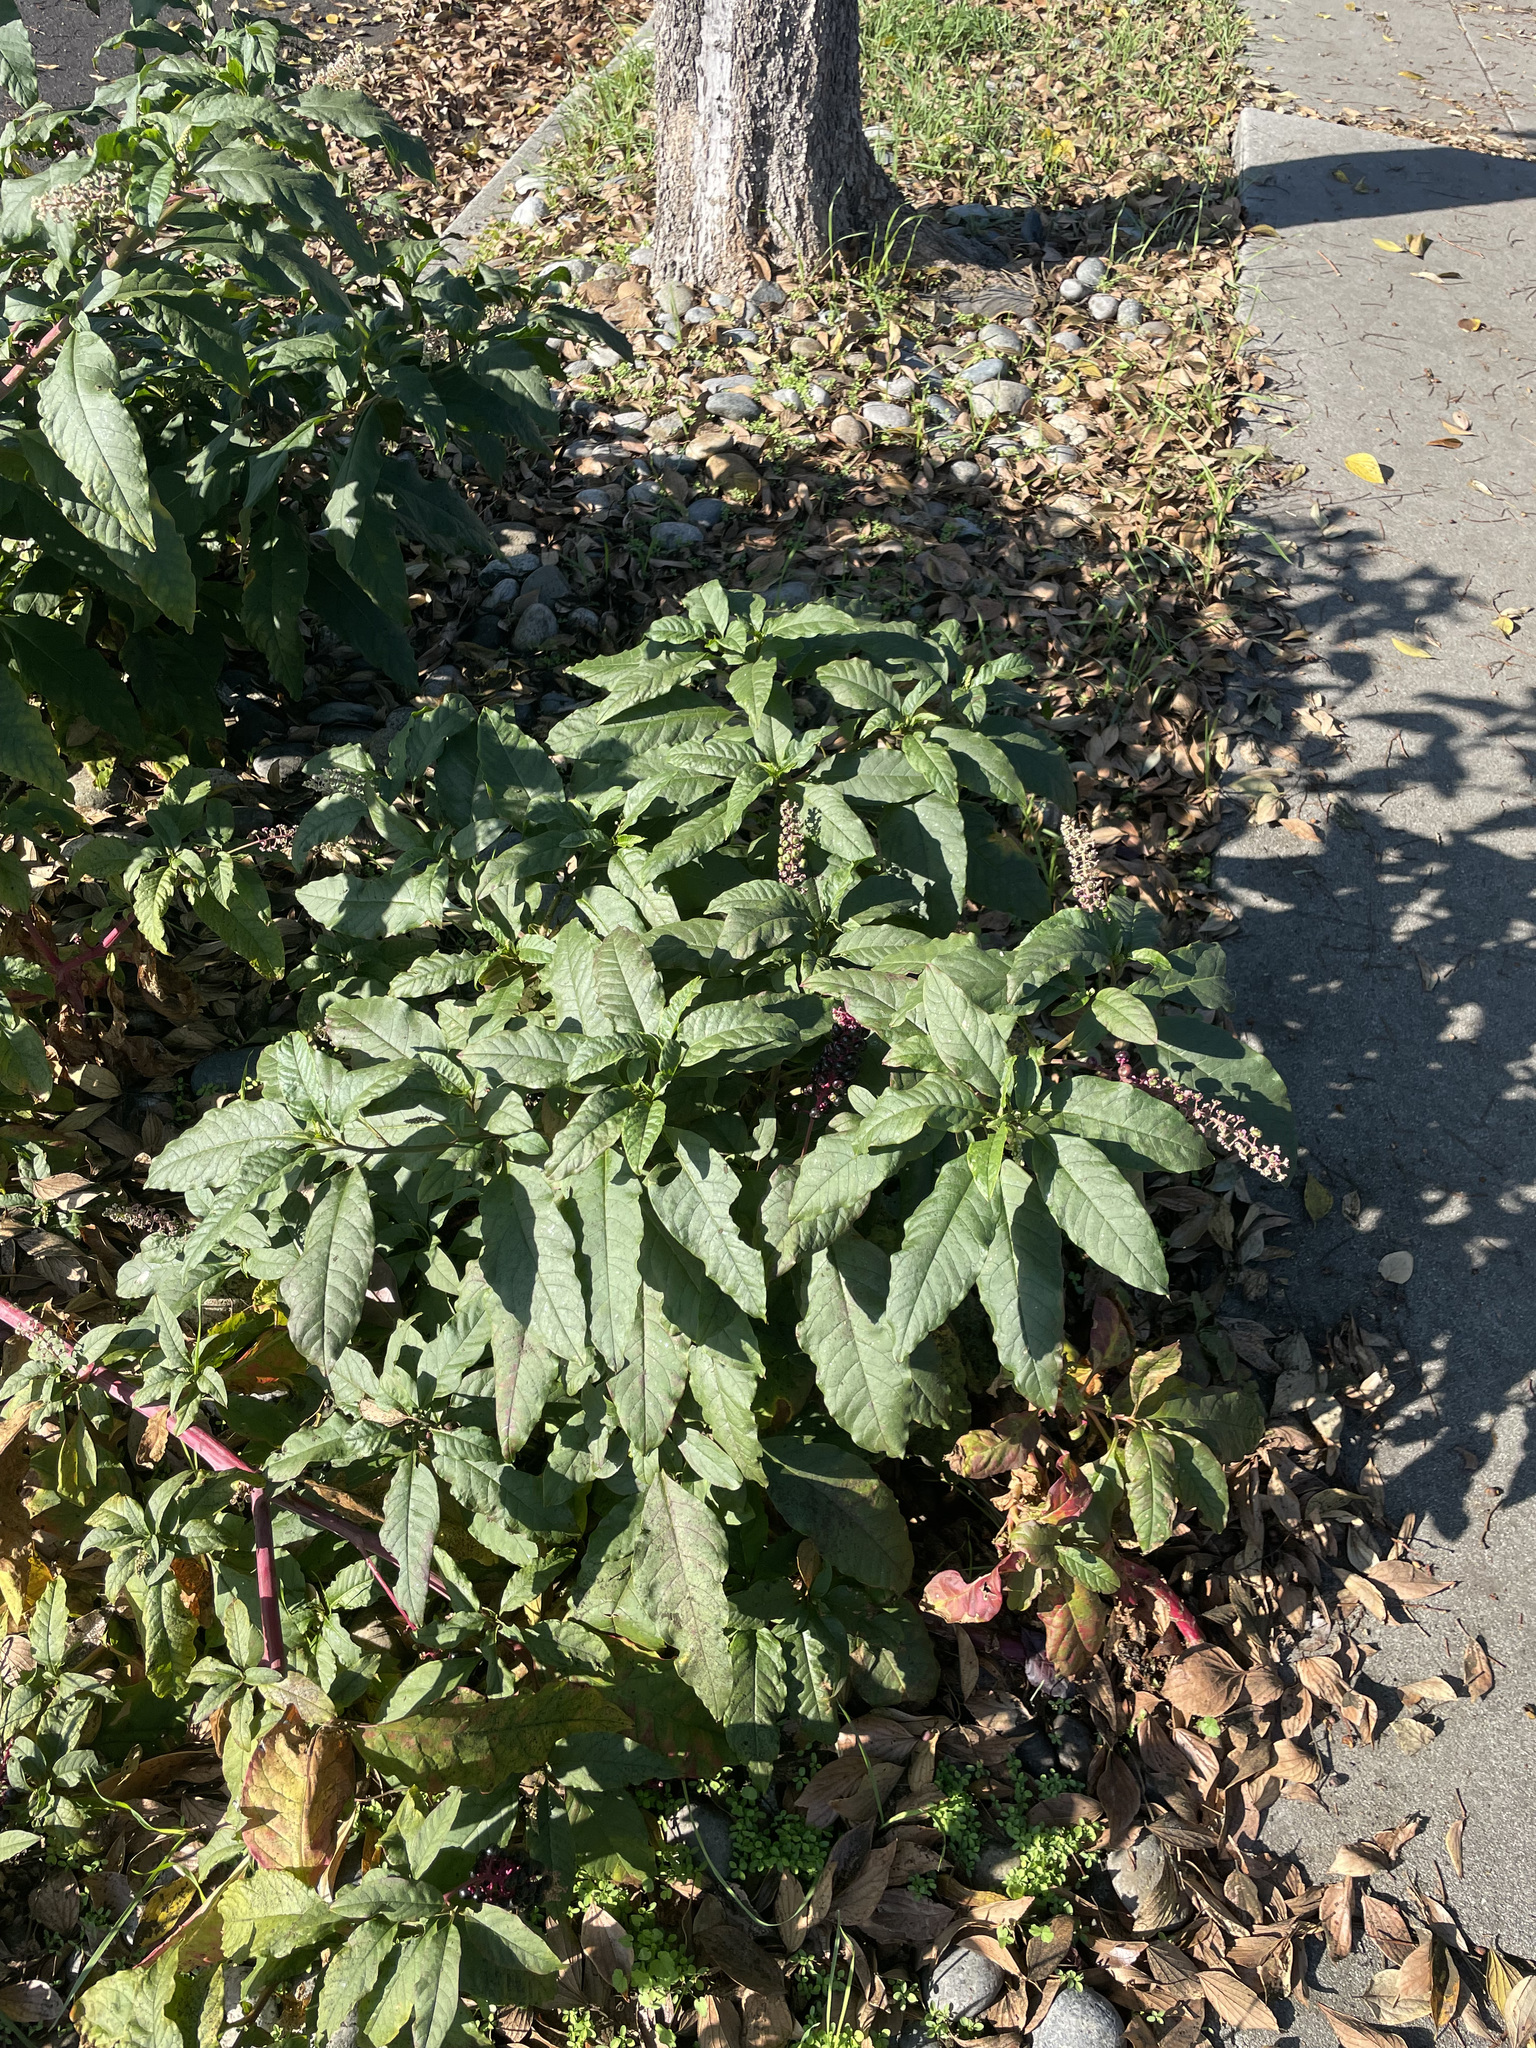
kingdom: Plantae
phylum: Tracheophyta
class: Magnoliopsida
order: Caryophyllales
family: Phytolaccaceae
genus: Phytolacca
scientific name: Phytolacca americana
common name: American pokeweed
